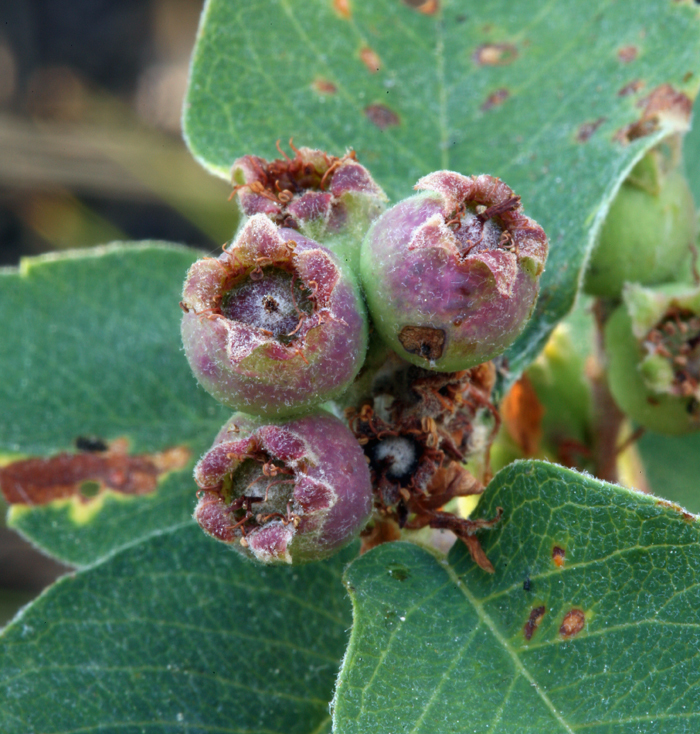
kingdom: Plantae
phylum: Tracheophyta
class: Magnoliopsida
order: Rosales
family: Rosaceae
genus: Amelanchier
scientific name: Amelanchier utahensis
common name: Utah serviceberry
